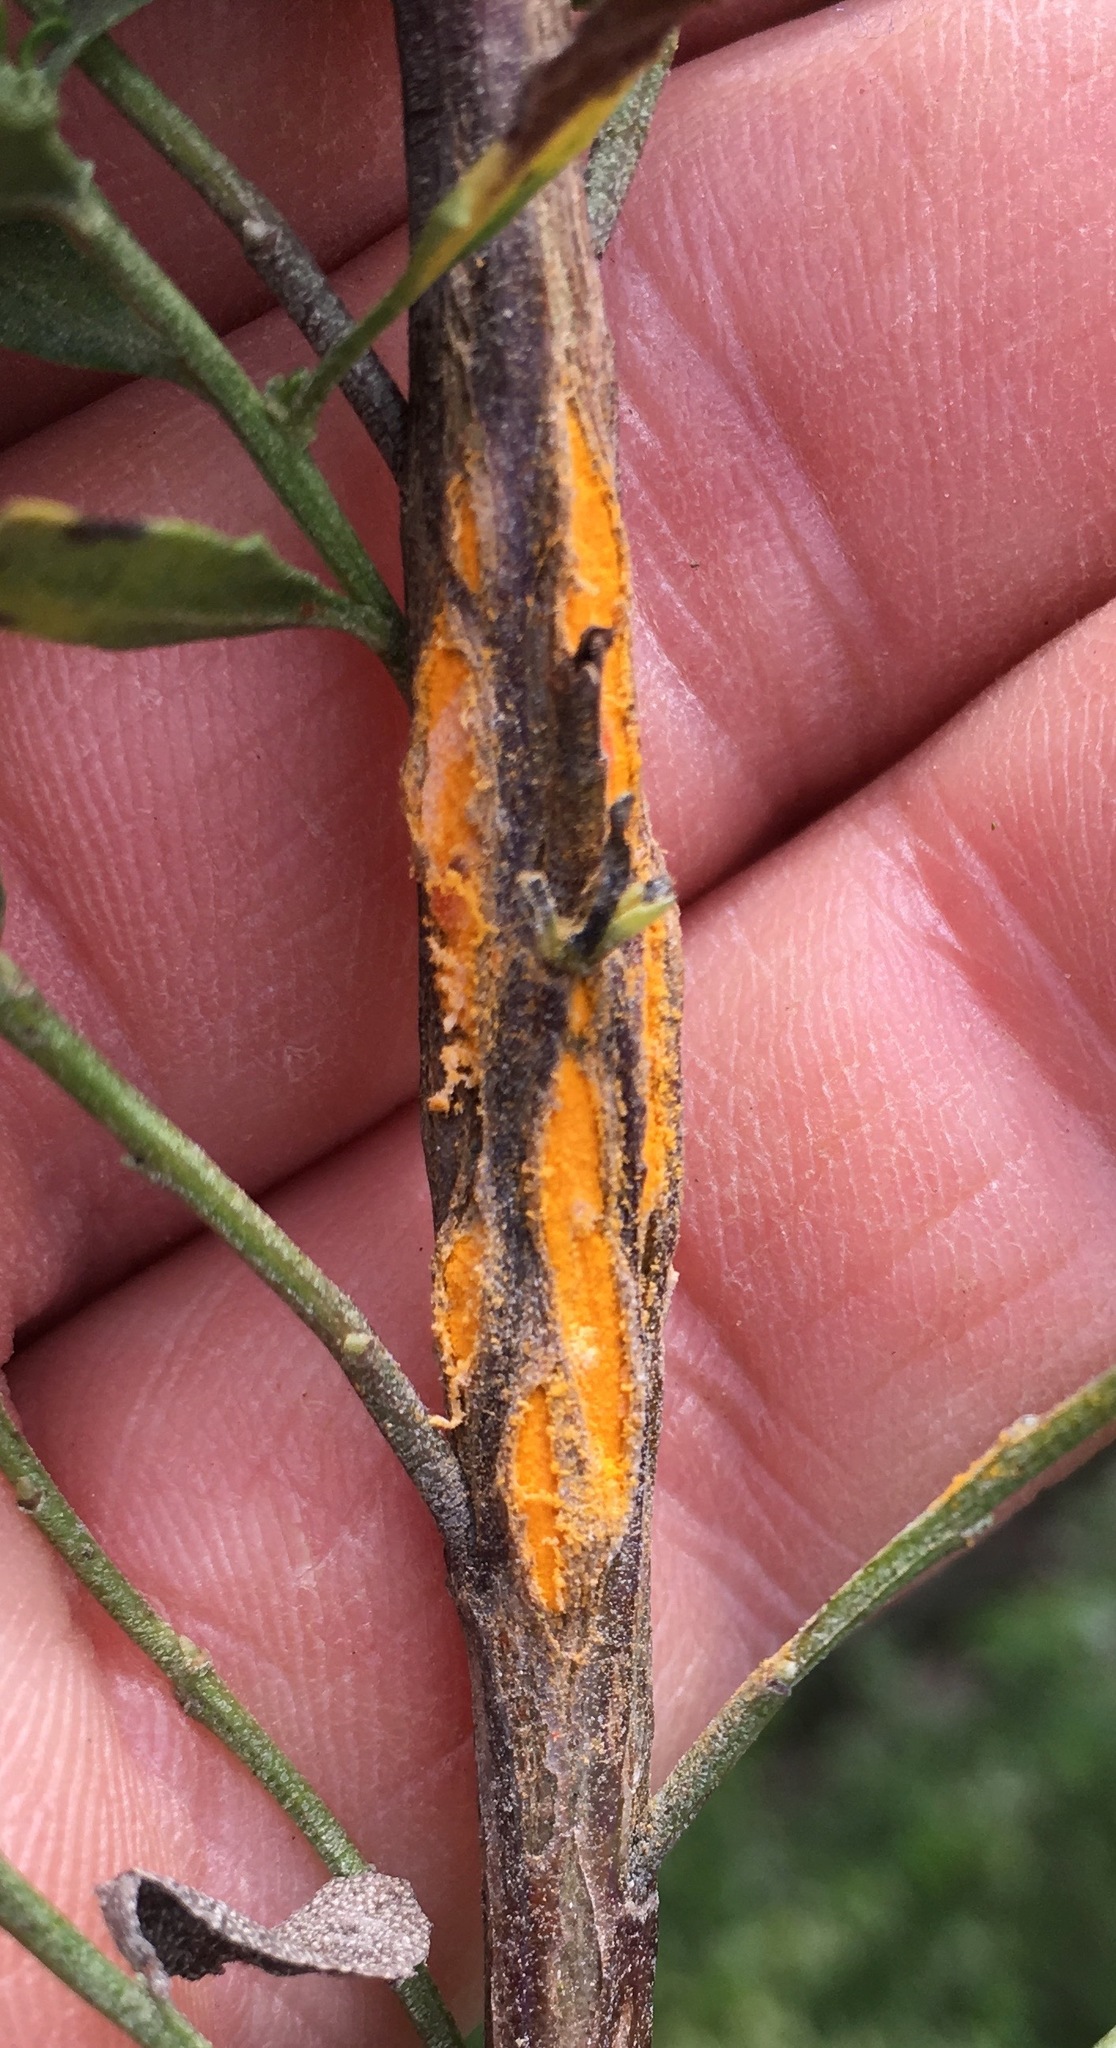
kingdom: Fungi
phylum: Basidiomycota
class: Pucciniomycetes
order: Pucciniales
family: Pucciniaceae
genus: Eriosporangium
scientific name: Eriosporangium evadens
